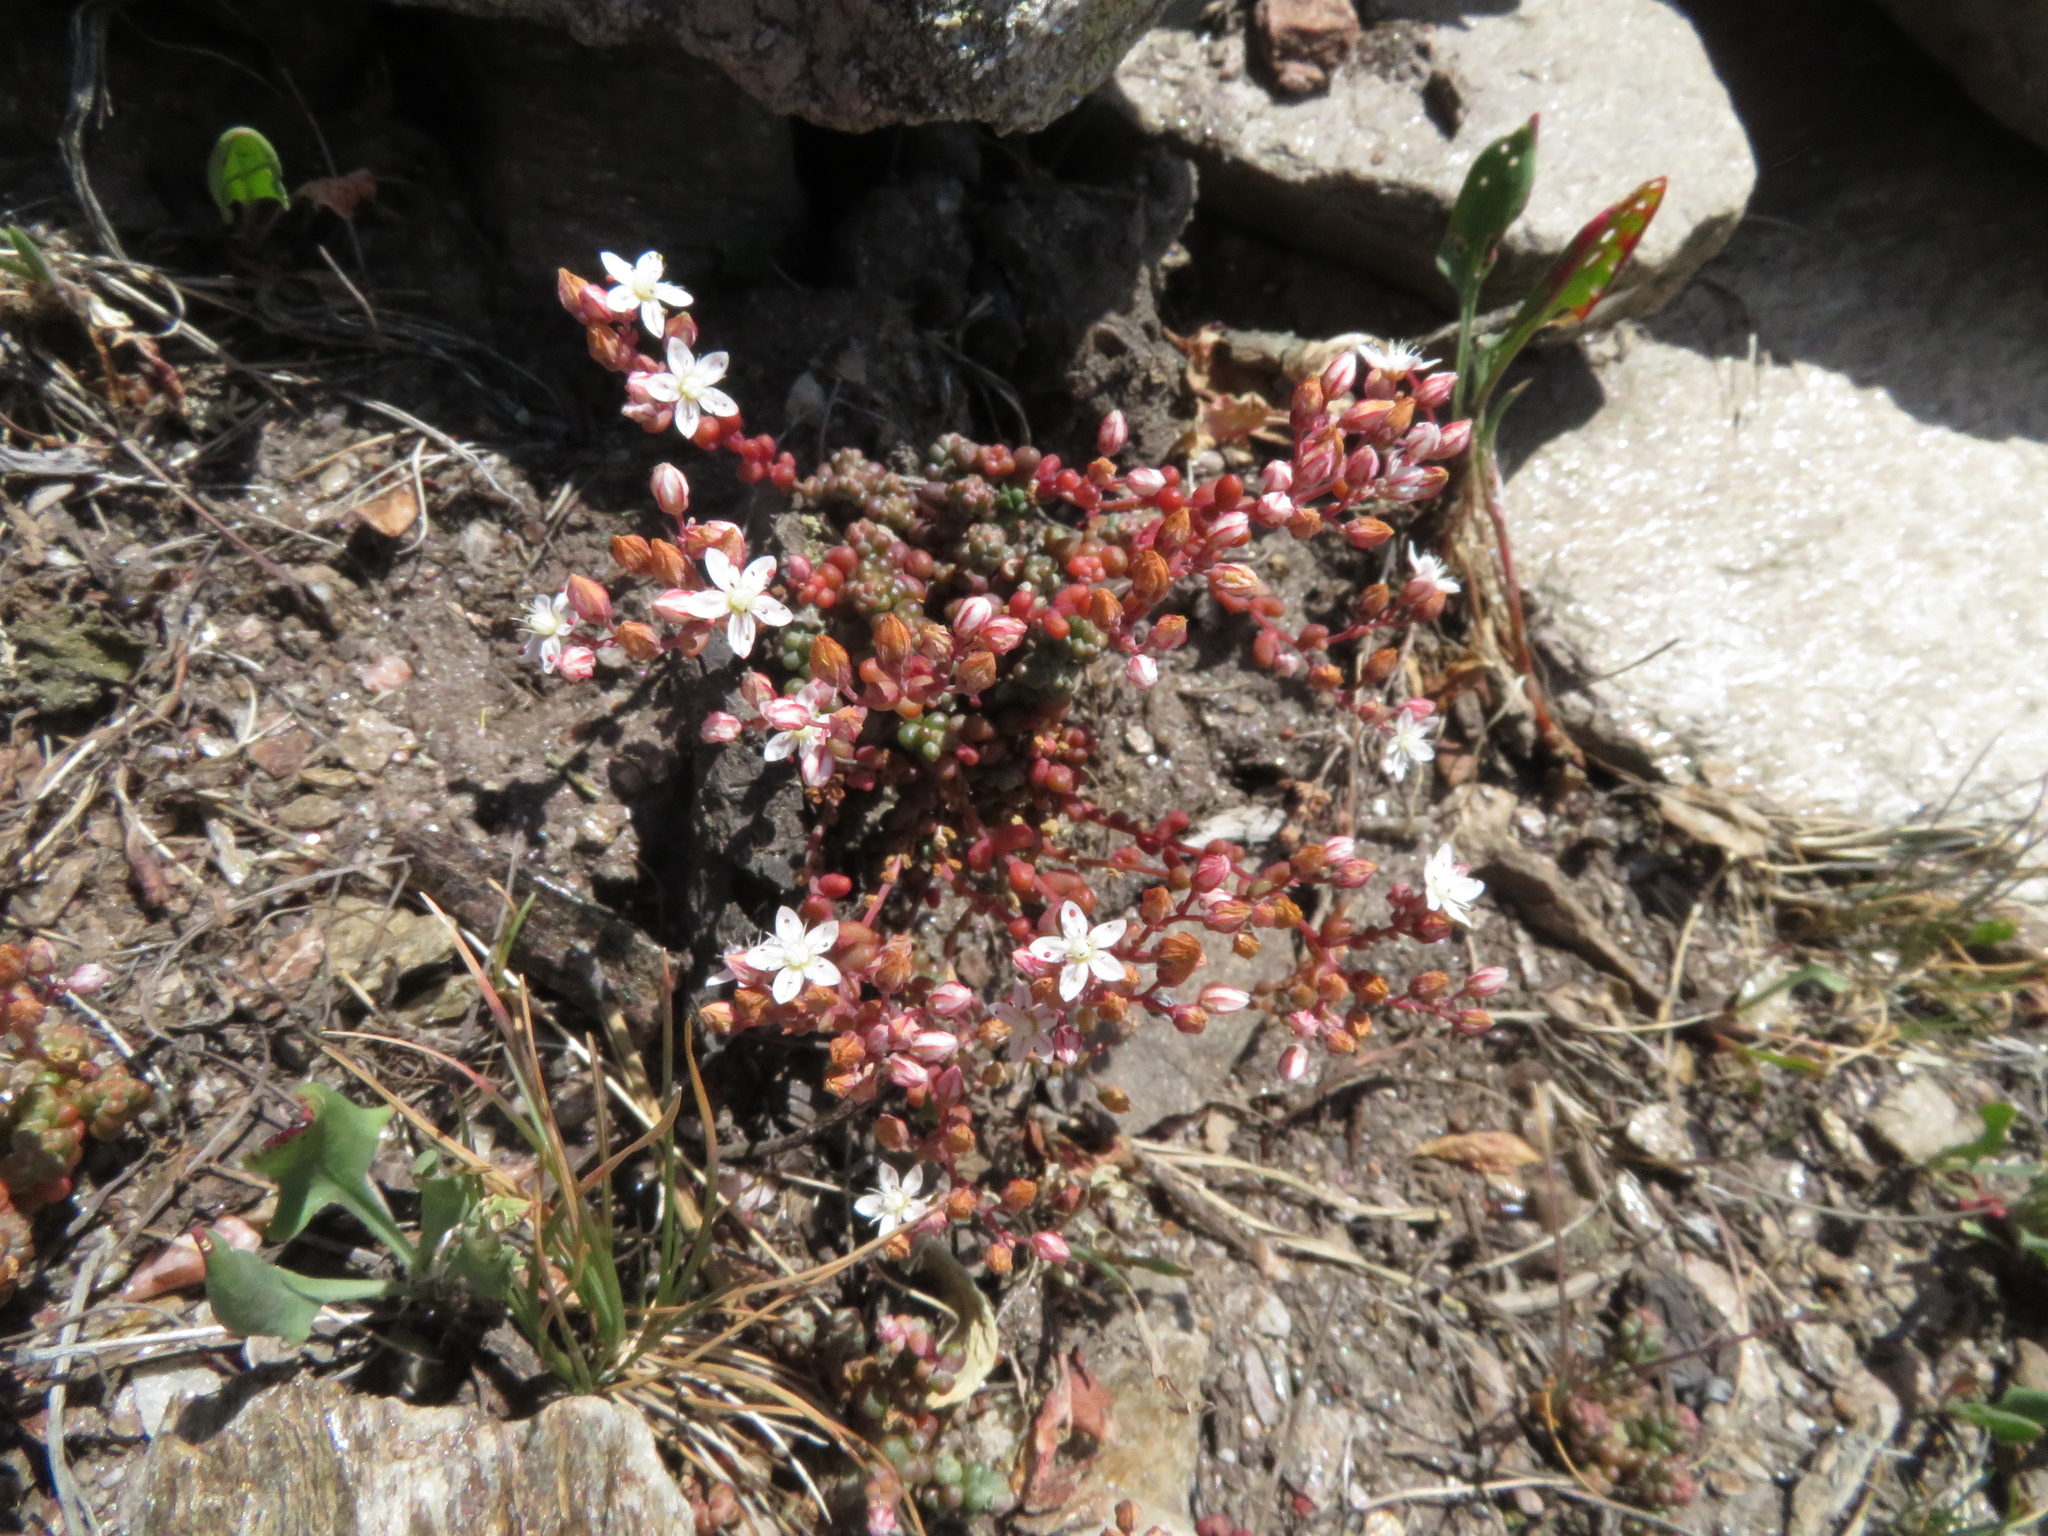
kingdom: Plantae
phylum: Tracheophyta
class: Magnoliopsida
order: Saxifragales
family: Crassulaceae
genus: Sedum
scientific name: Sedum brevifolium
